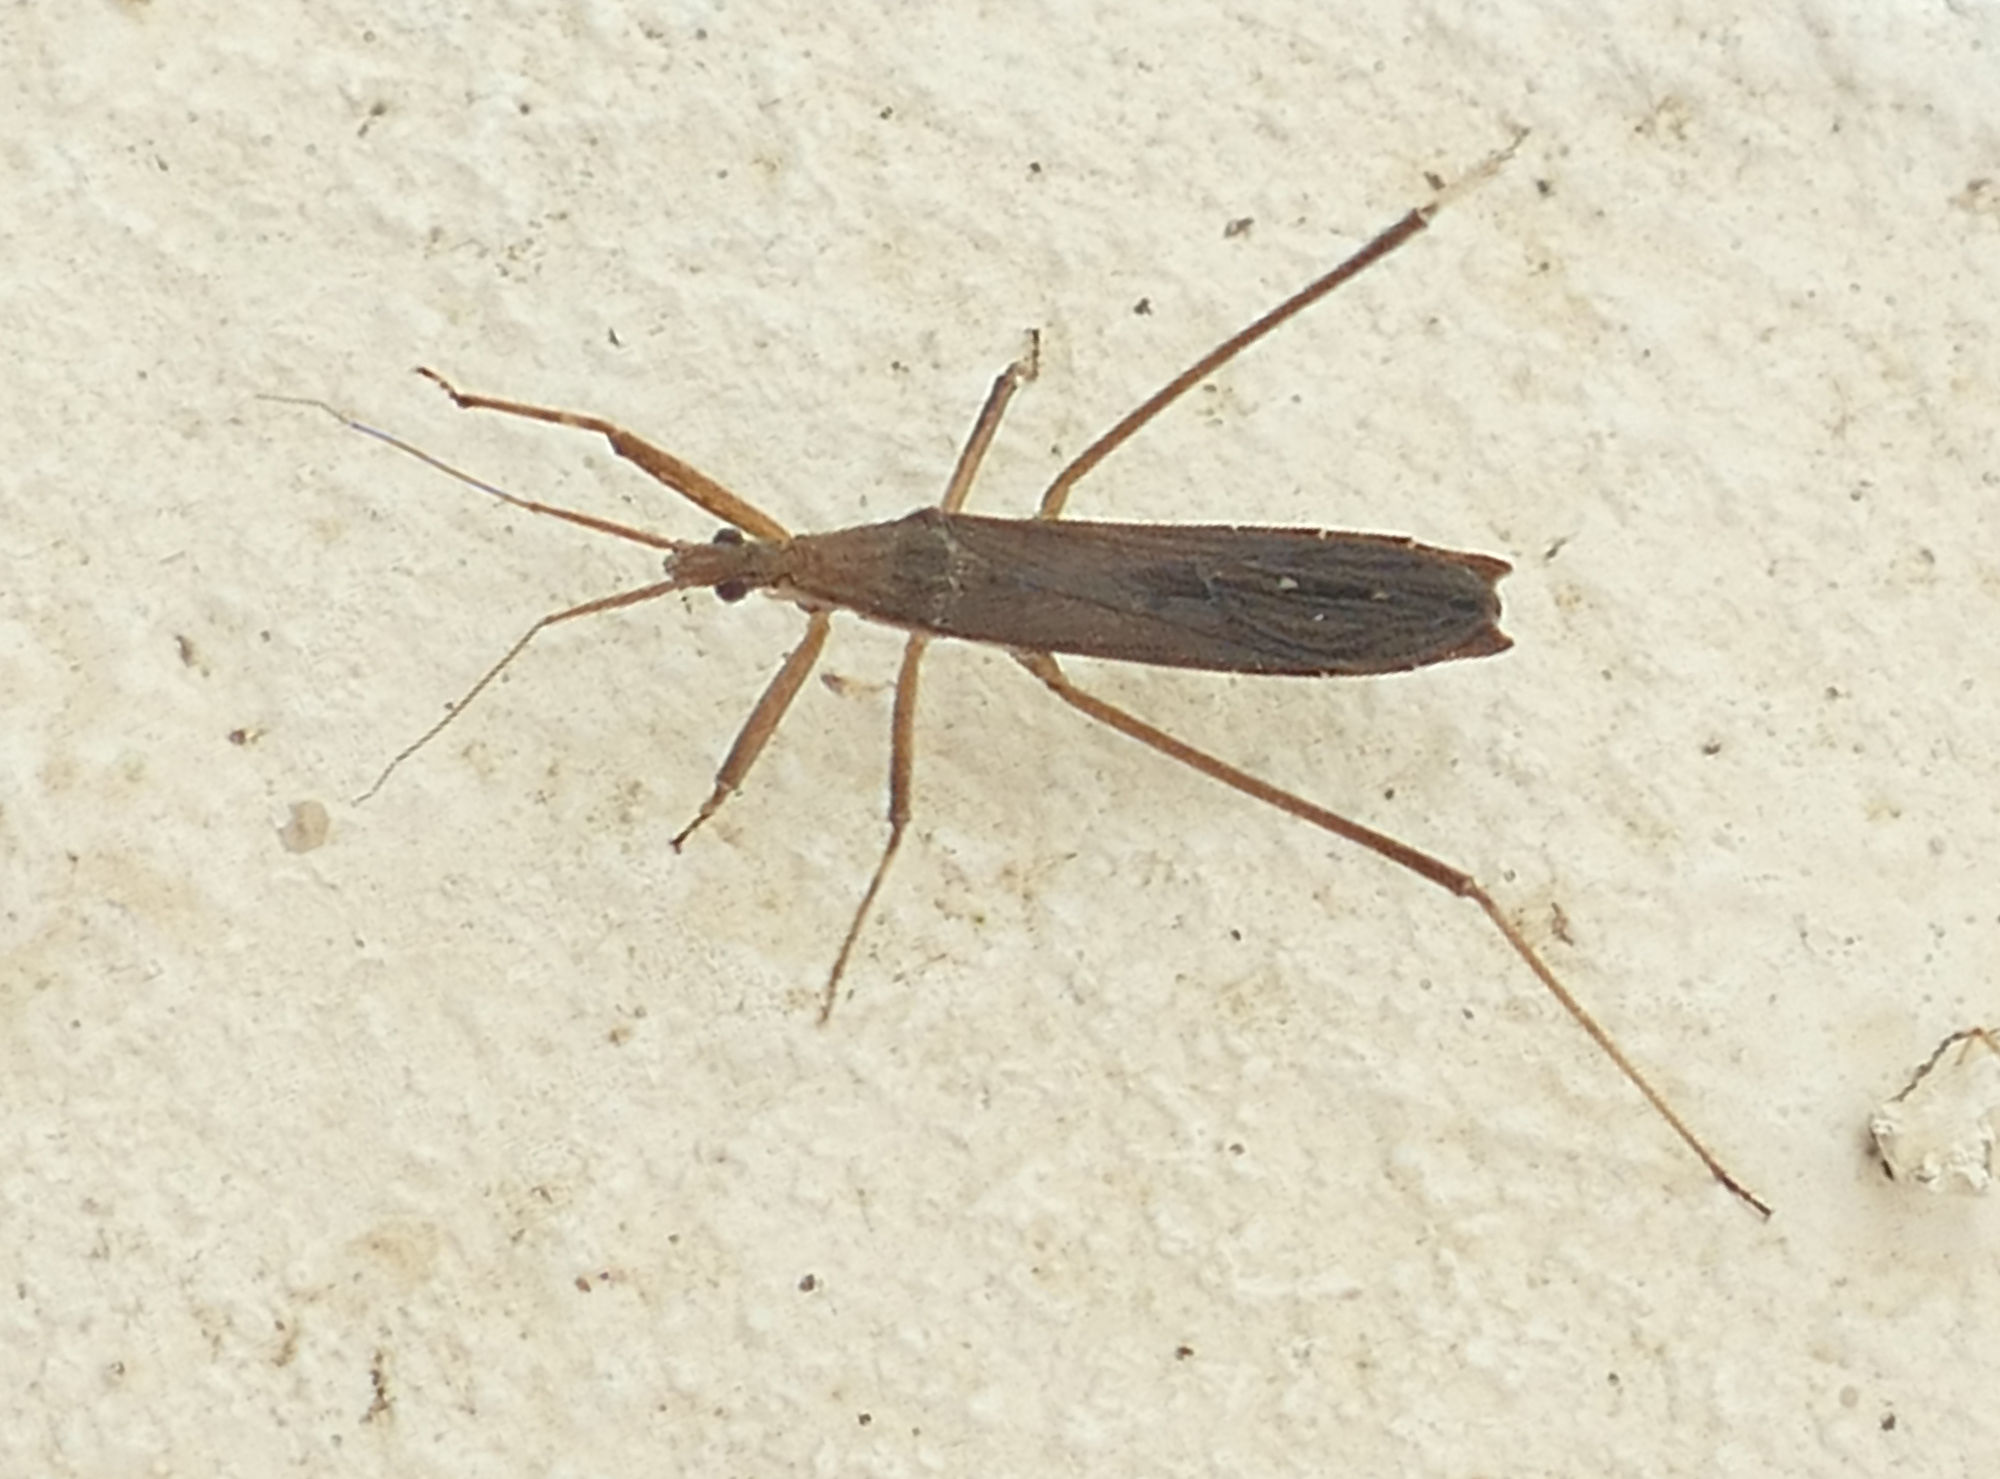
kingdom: Animalia
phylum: Arthropoda
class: Insecta
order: Hemiptera
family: Reduviidae
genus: Pygolampis
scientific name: Pygolampis pectoralis
